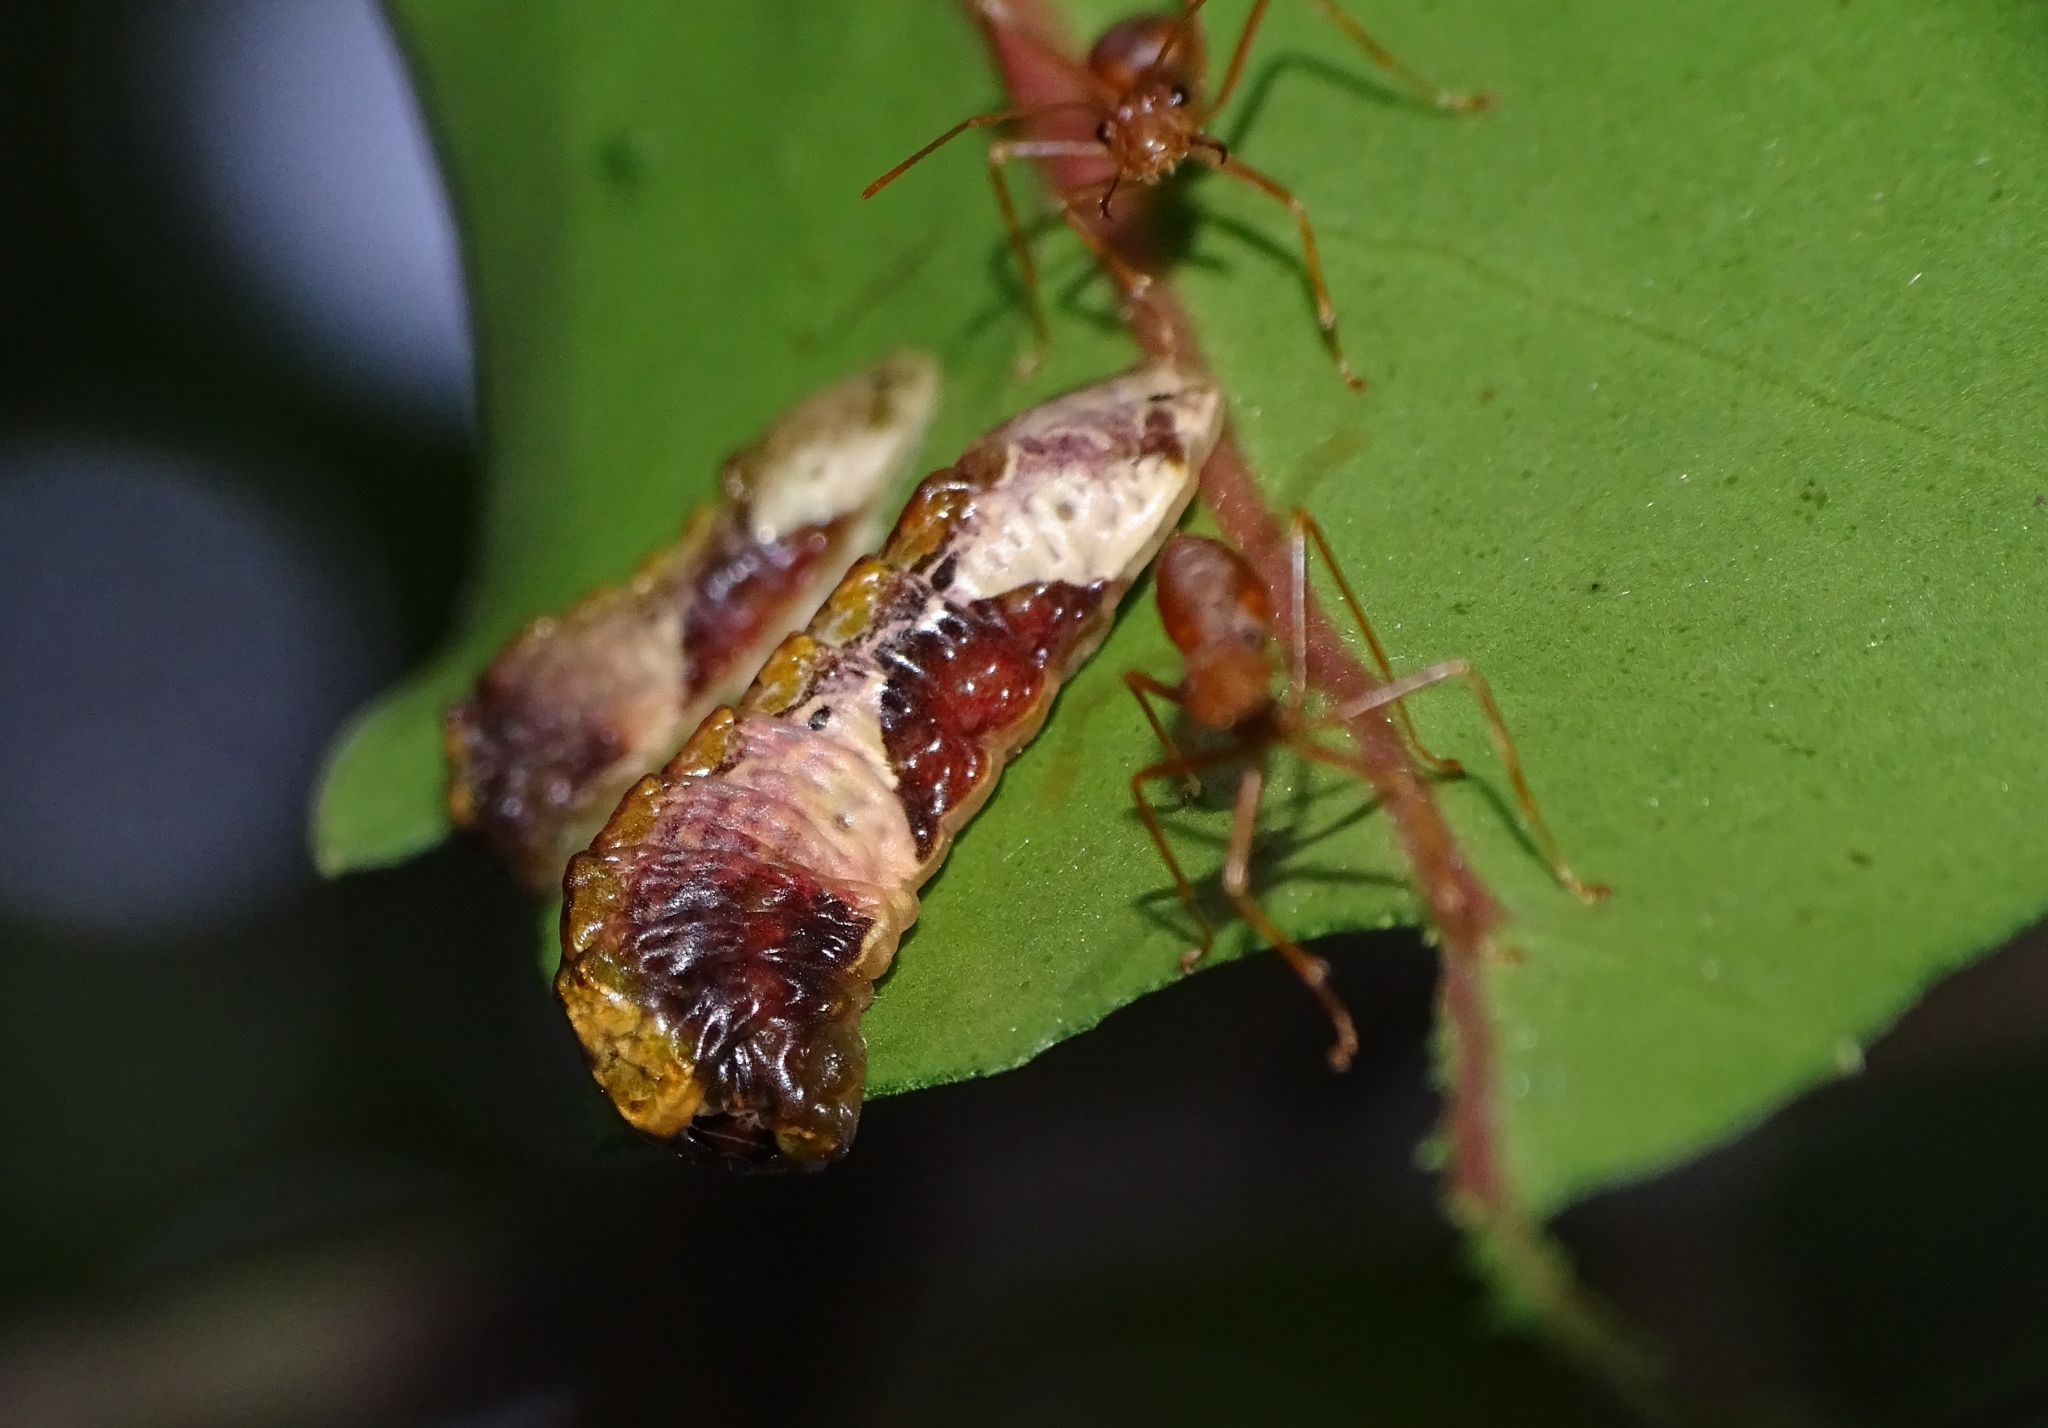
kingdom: Animalia
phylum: Arthropoda
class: Insecta
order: Lepidoptera
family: Lycaenidae
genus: Tajuria
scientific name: Tajuria cippus
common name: Peacock royal
